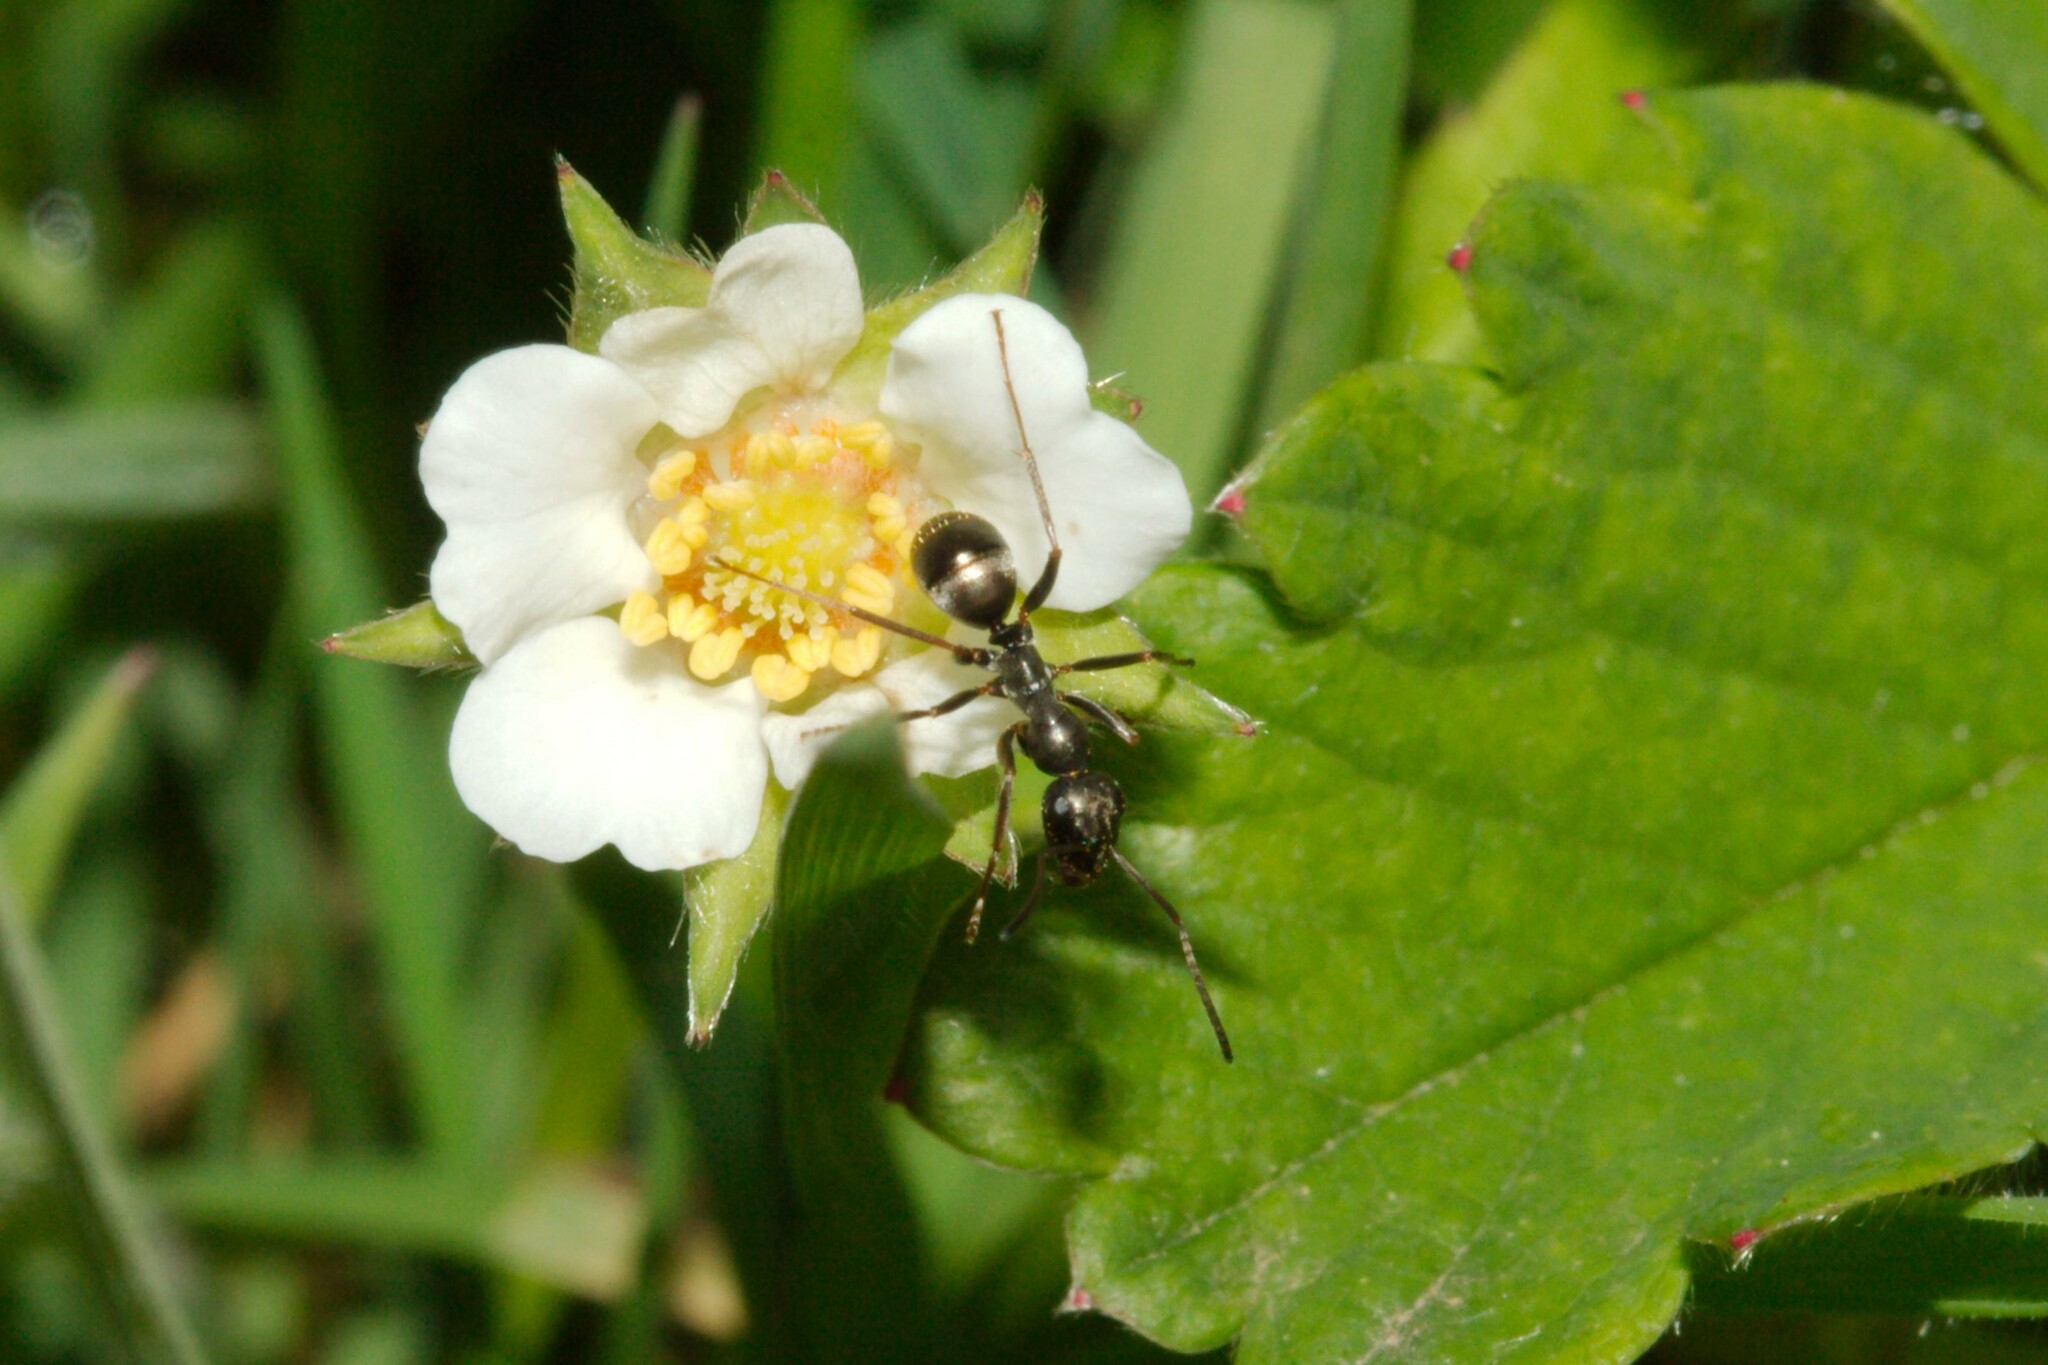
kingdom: Animalia
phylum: Arthropoda
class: Insecta
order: Hymenoptera
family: Formicidae
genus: Formica
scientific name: Formica fusca
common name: Silky ant
